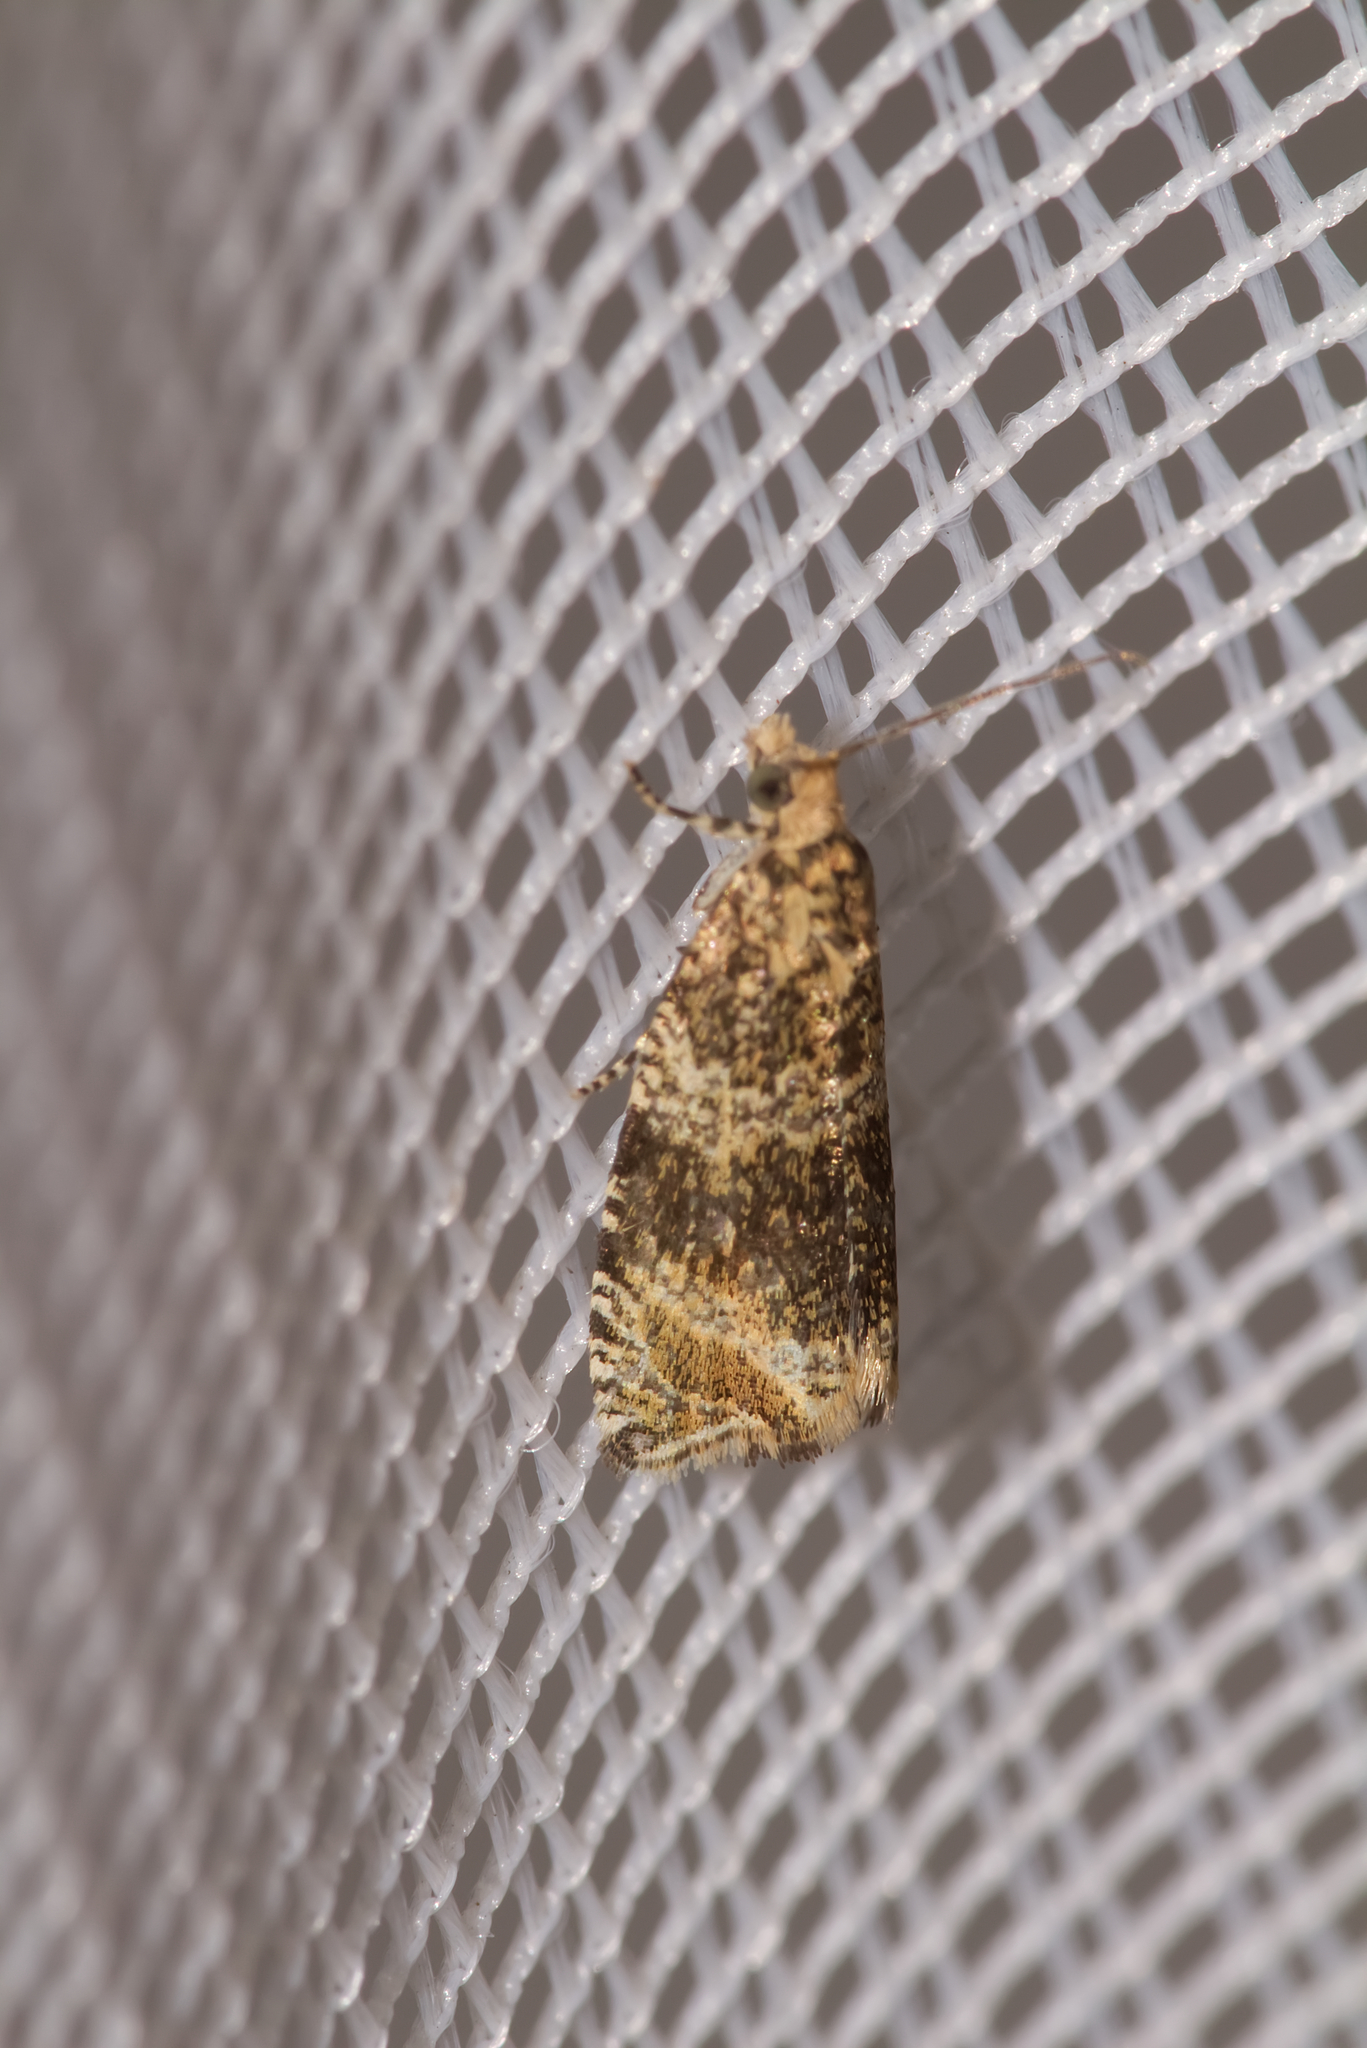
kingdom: Animalia
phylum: Arthropoda
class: Insecta
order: Lepidoptera
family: Tortricidae
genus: Syricoris
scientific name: Syricoris lacunana
